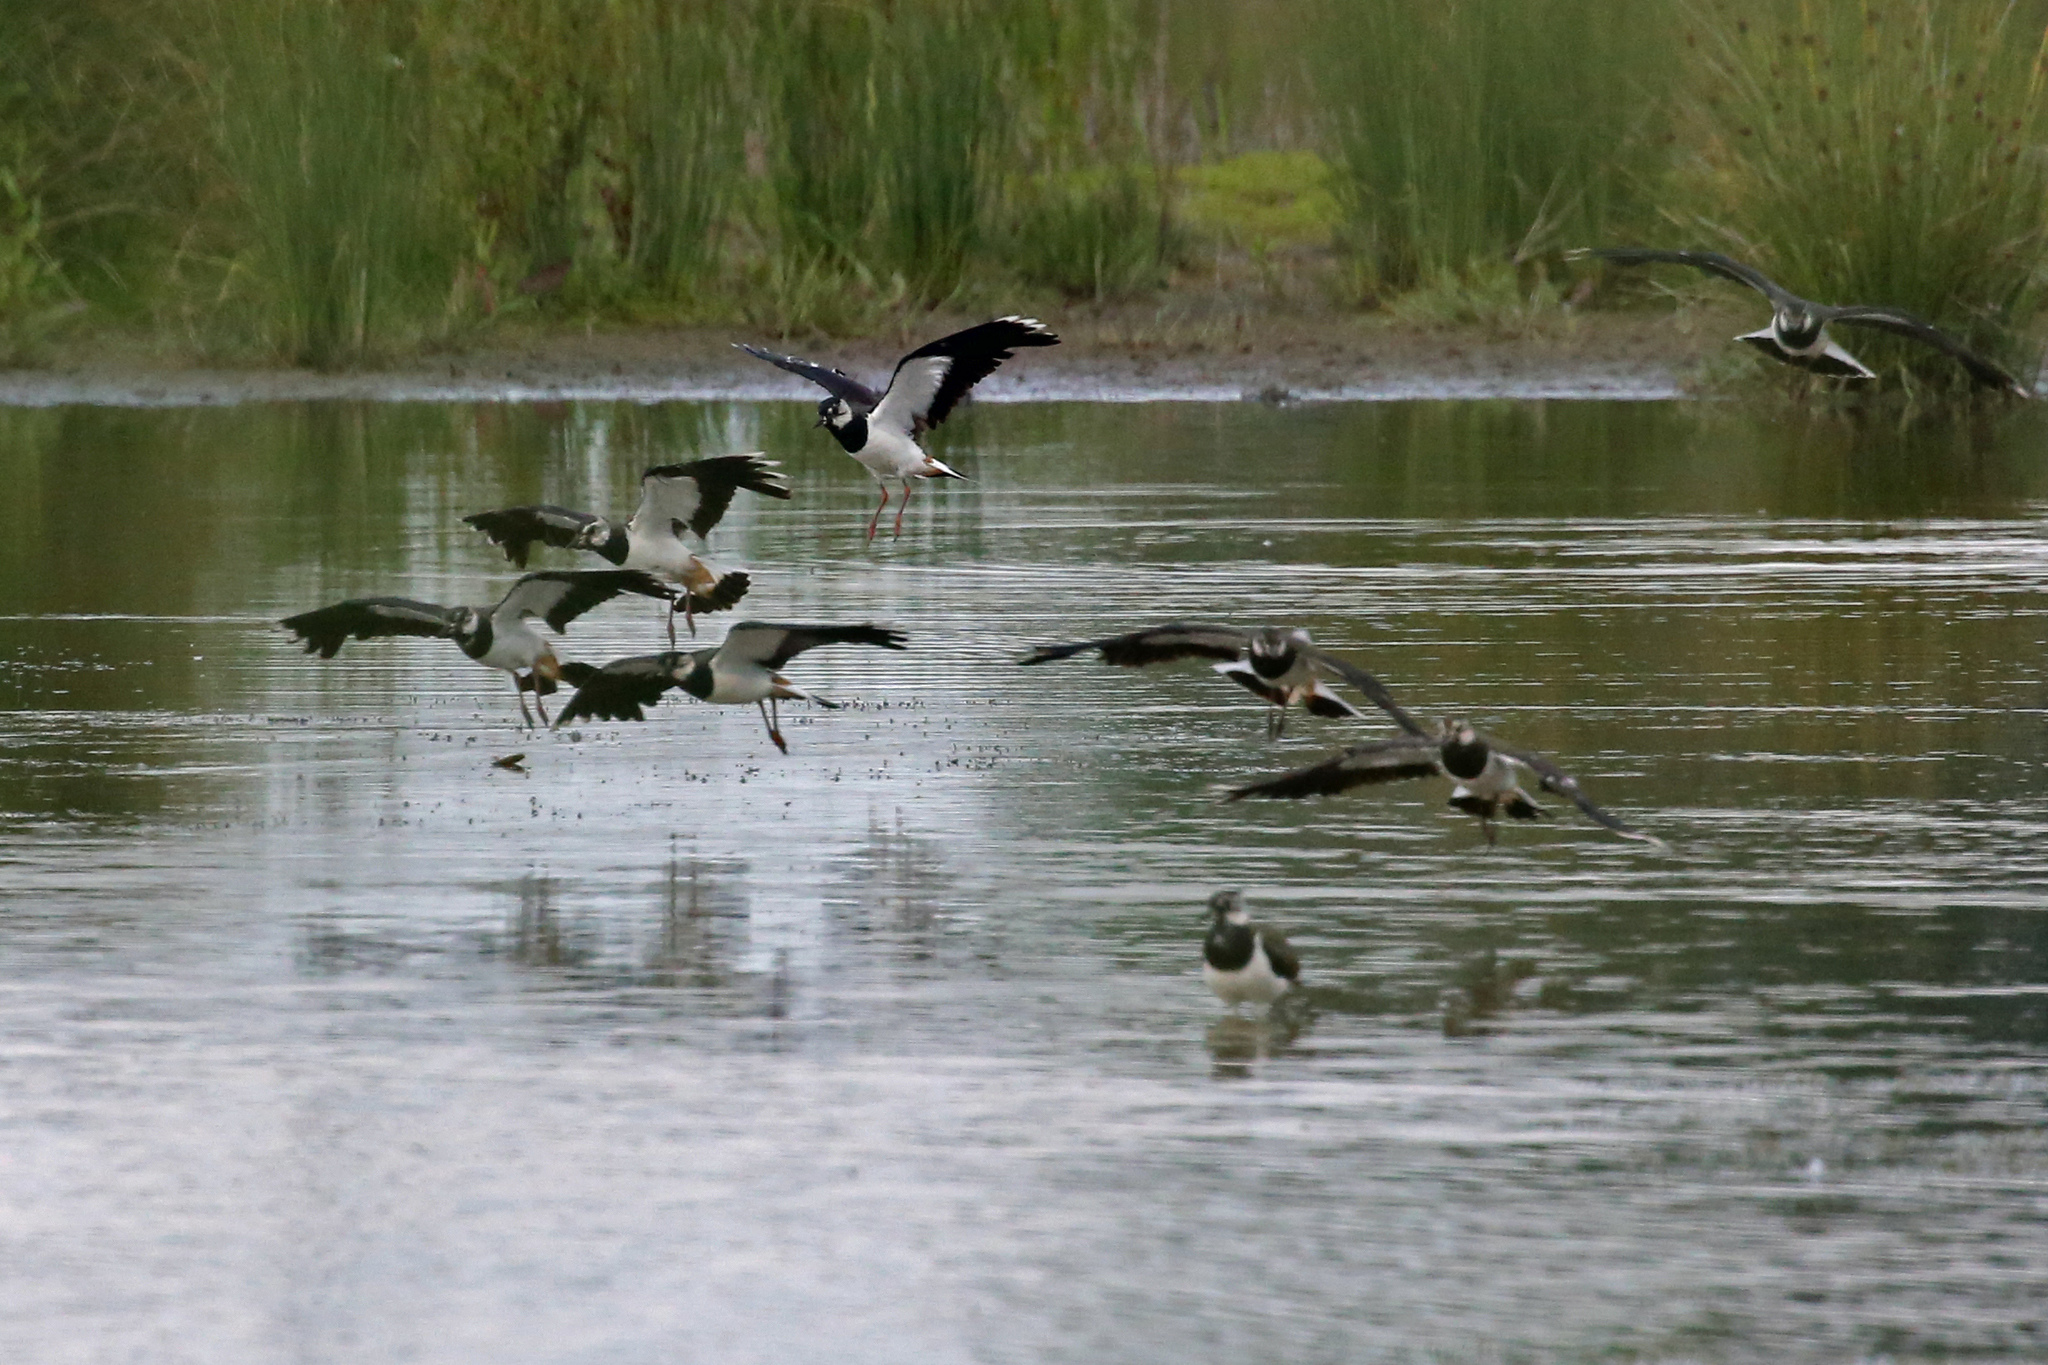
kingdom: Animalia
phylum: Chordata
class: Aves
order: Charadriiformes
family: Charadriidae
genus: Vanellus
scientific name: Vanellus vanellus
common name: Northern lapwing
